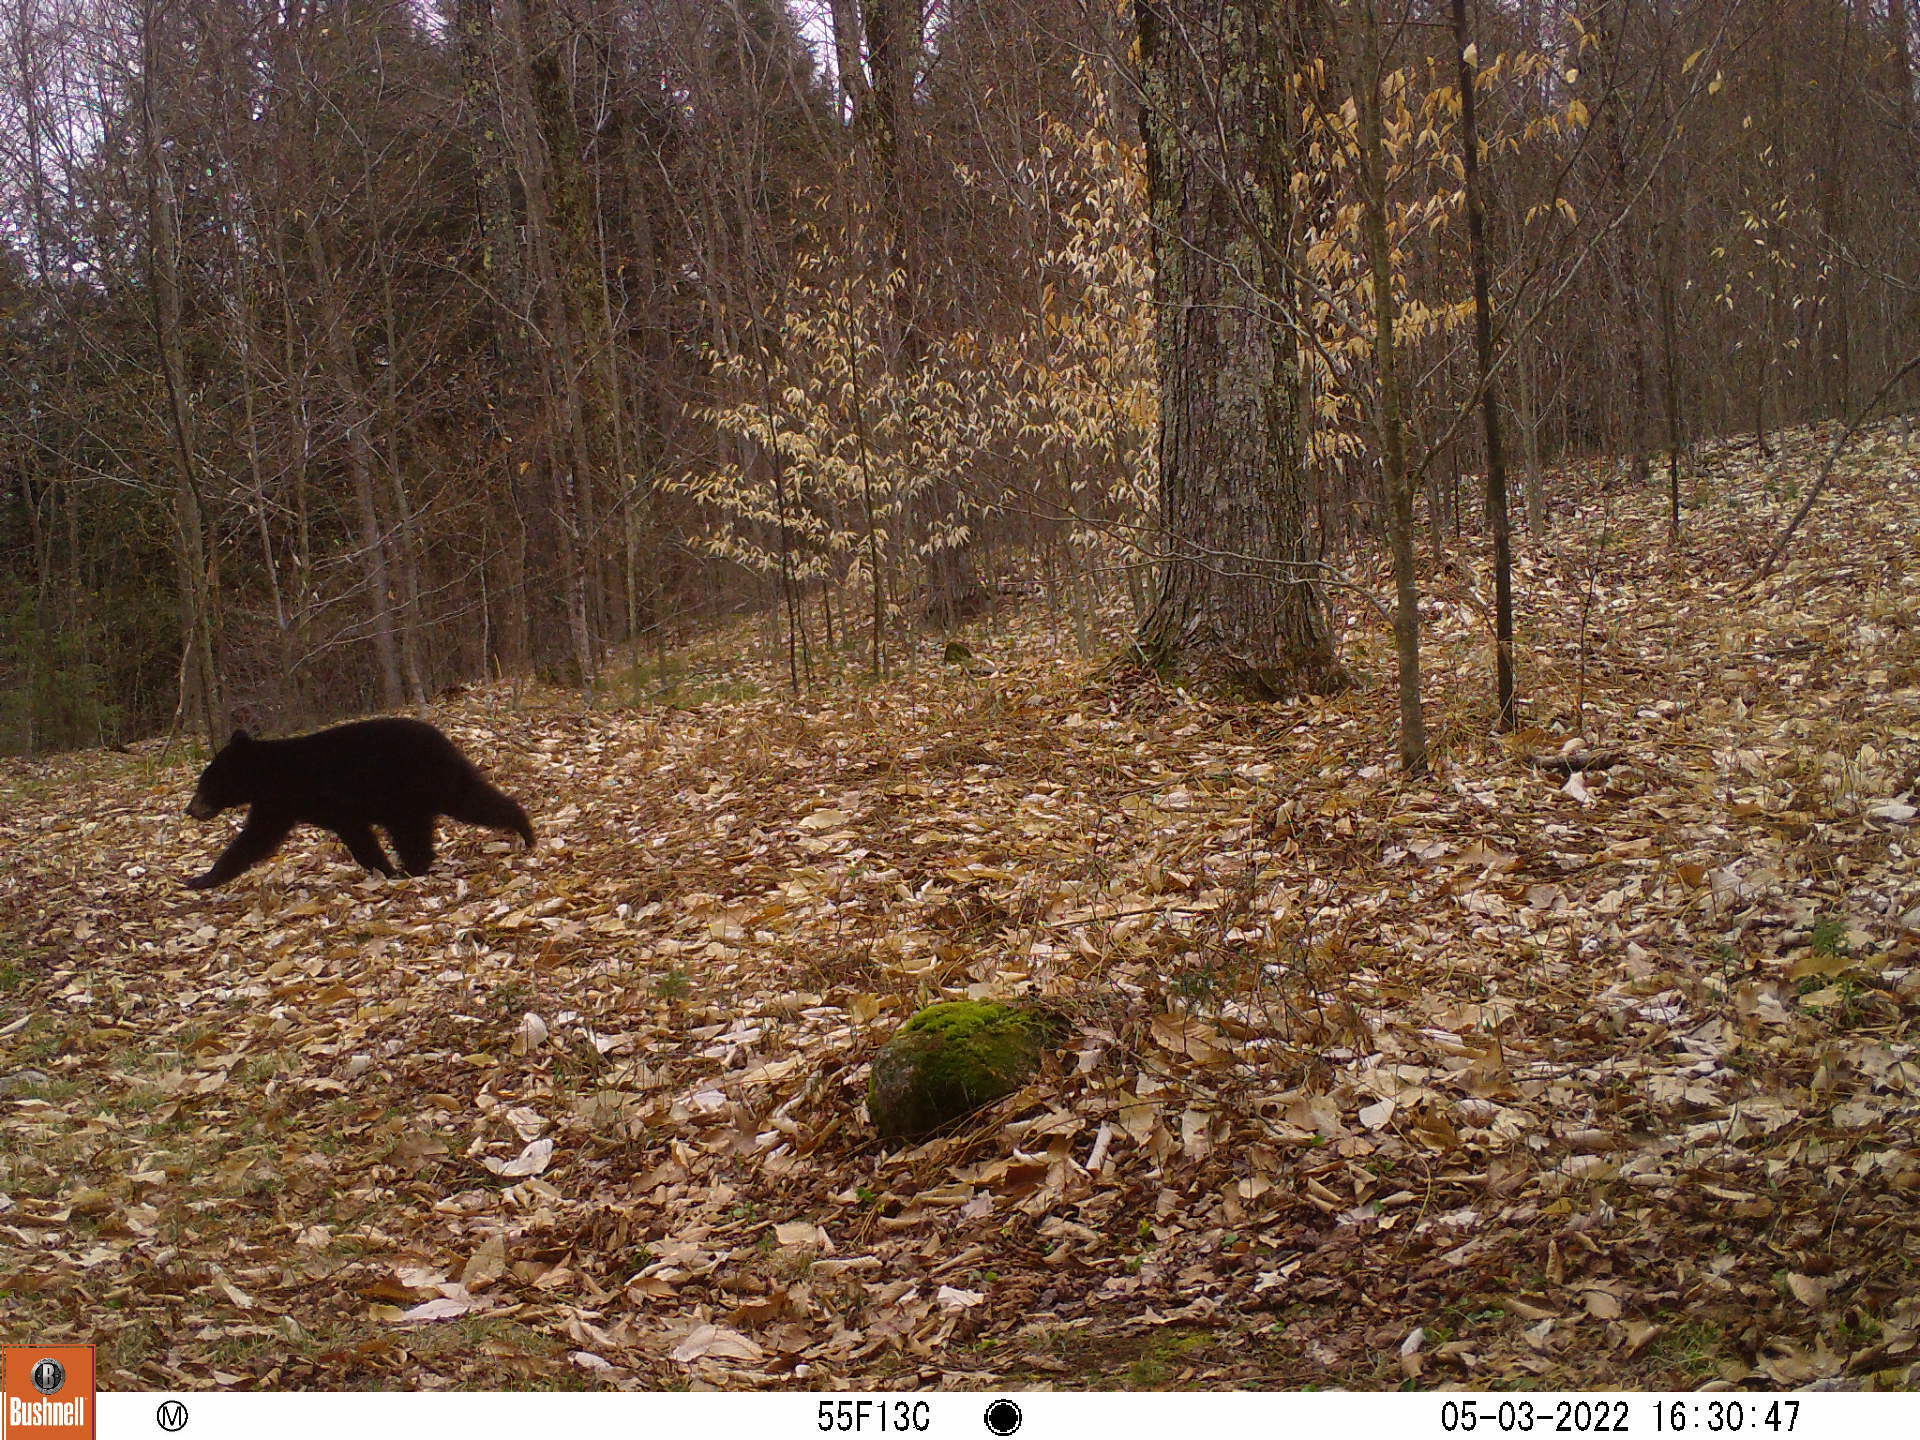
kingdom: Animalia
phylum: Chordata
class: Mammalia
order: Carnivora
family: Ursidae
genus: Ursus
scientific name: Ursus americanus
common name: American black bear
